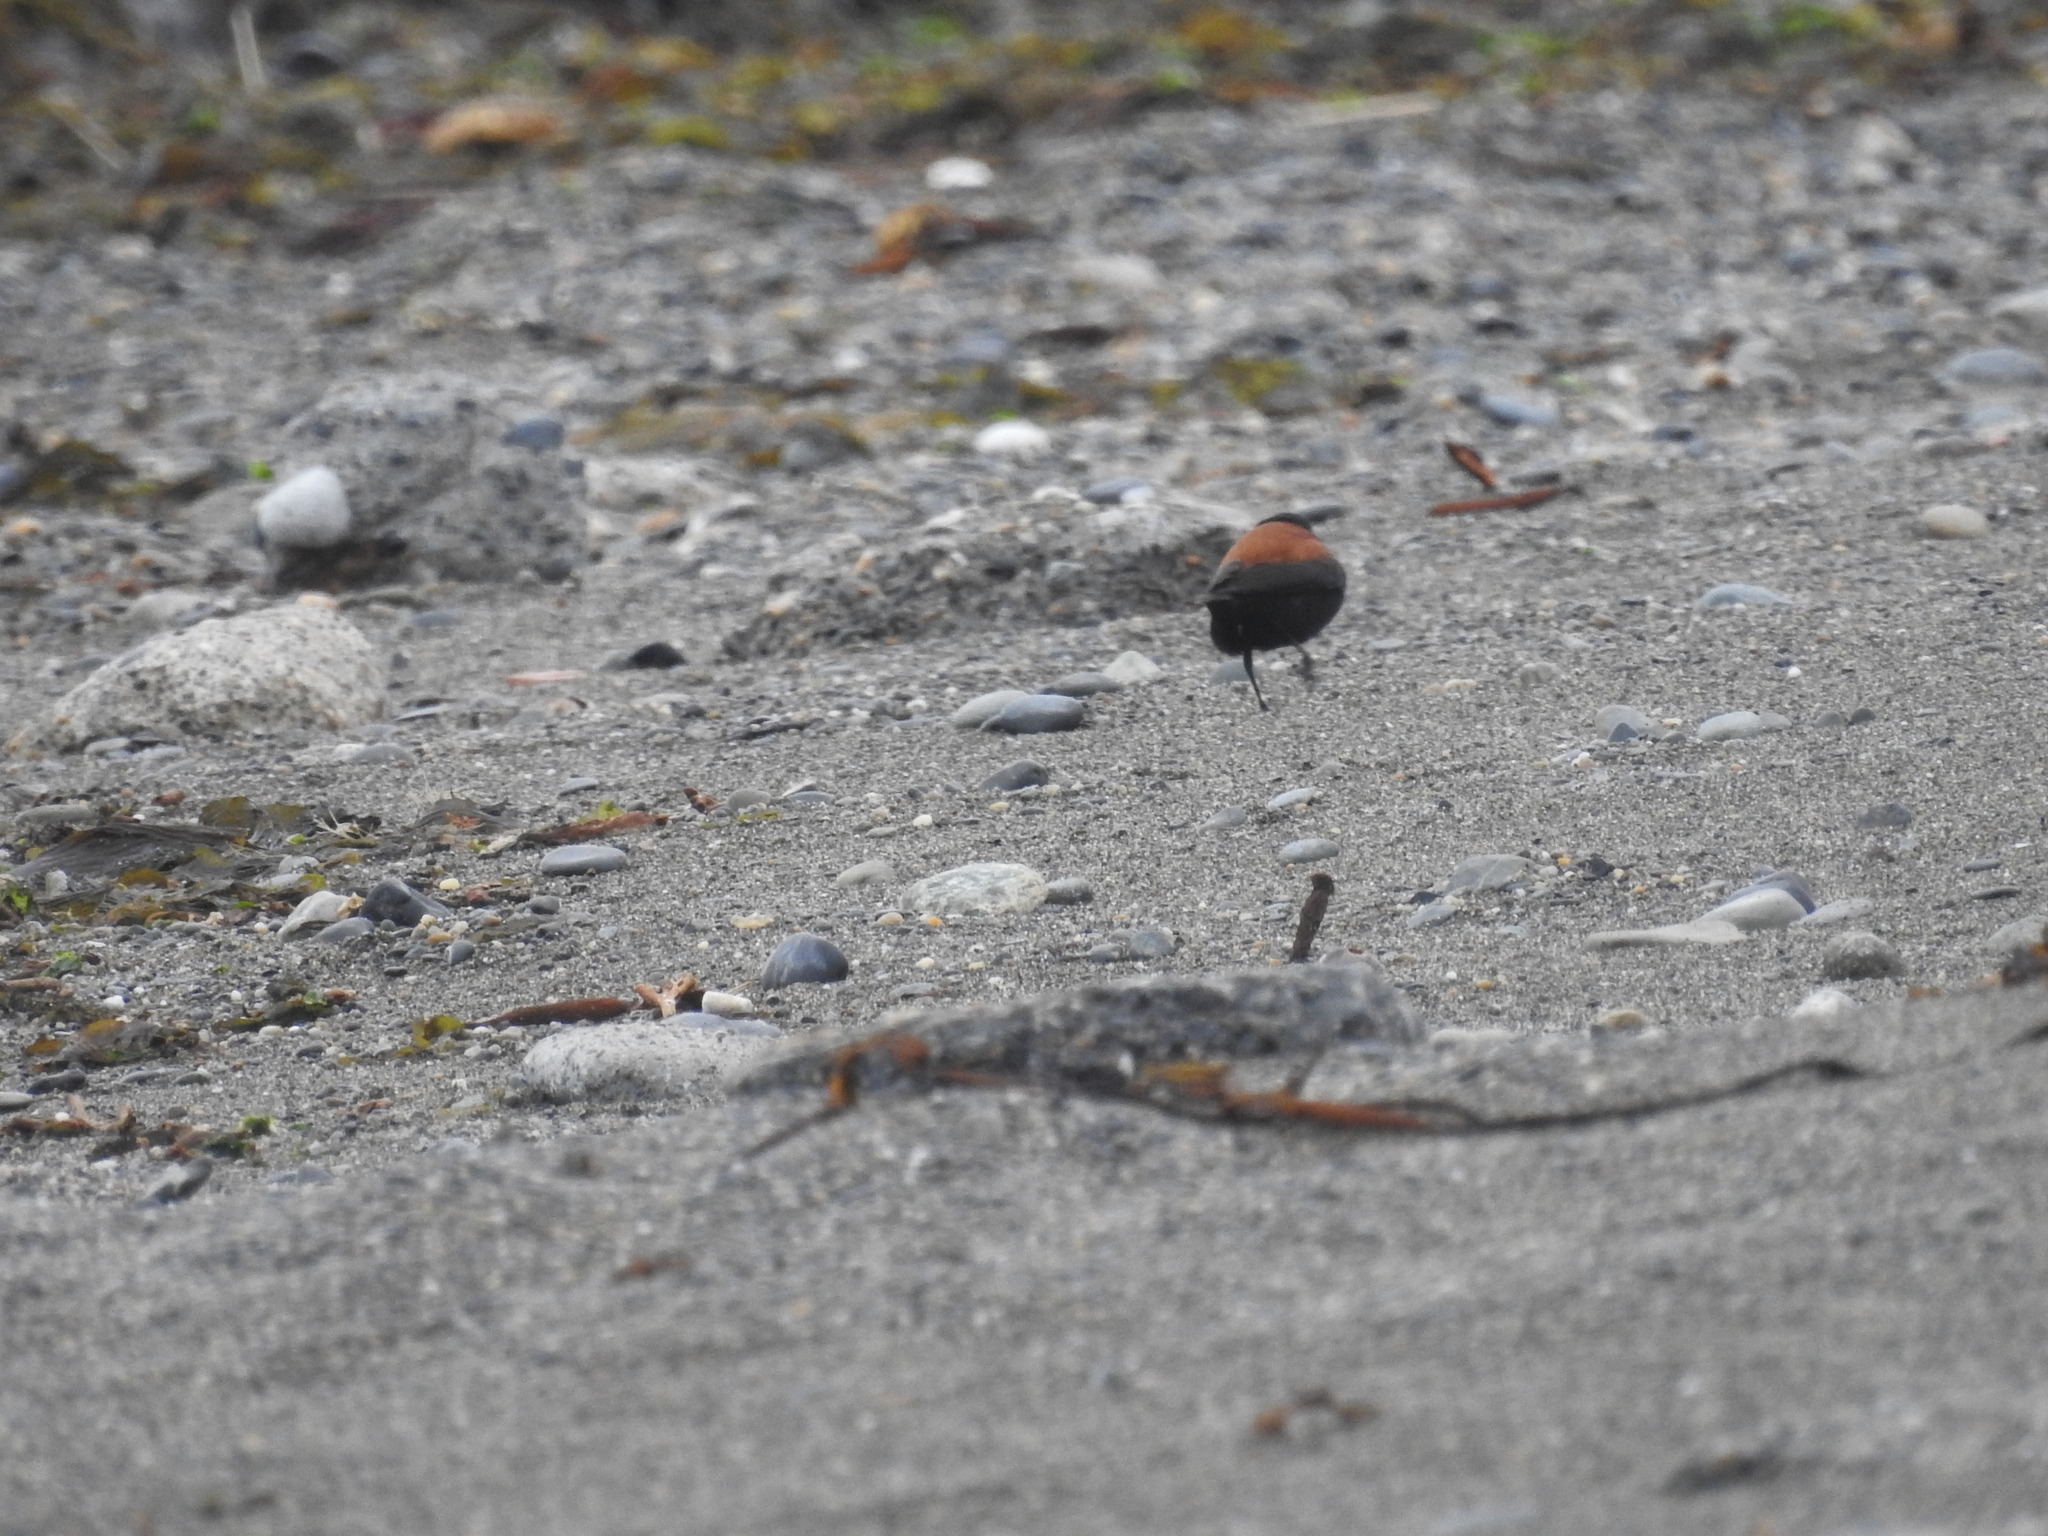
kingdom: Animalia
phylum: Chordata
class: Aves
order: Passeriformes
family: Tyrannidae
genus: Lessonia
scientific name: Lessonia rufa
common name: Austral negrito
